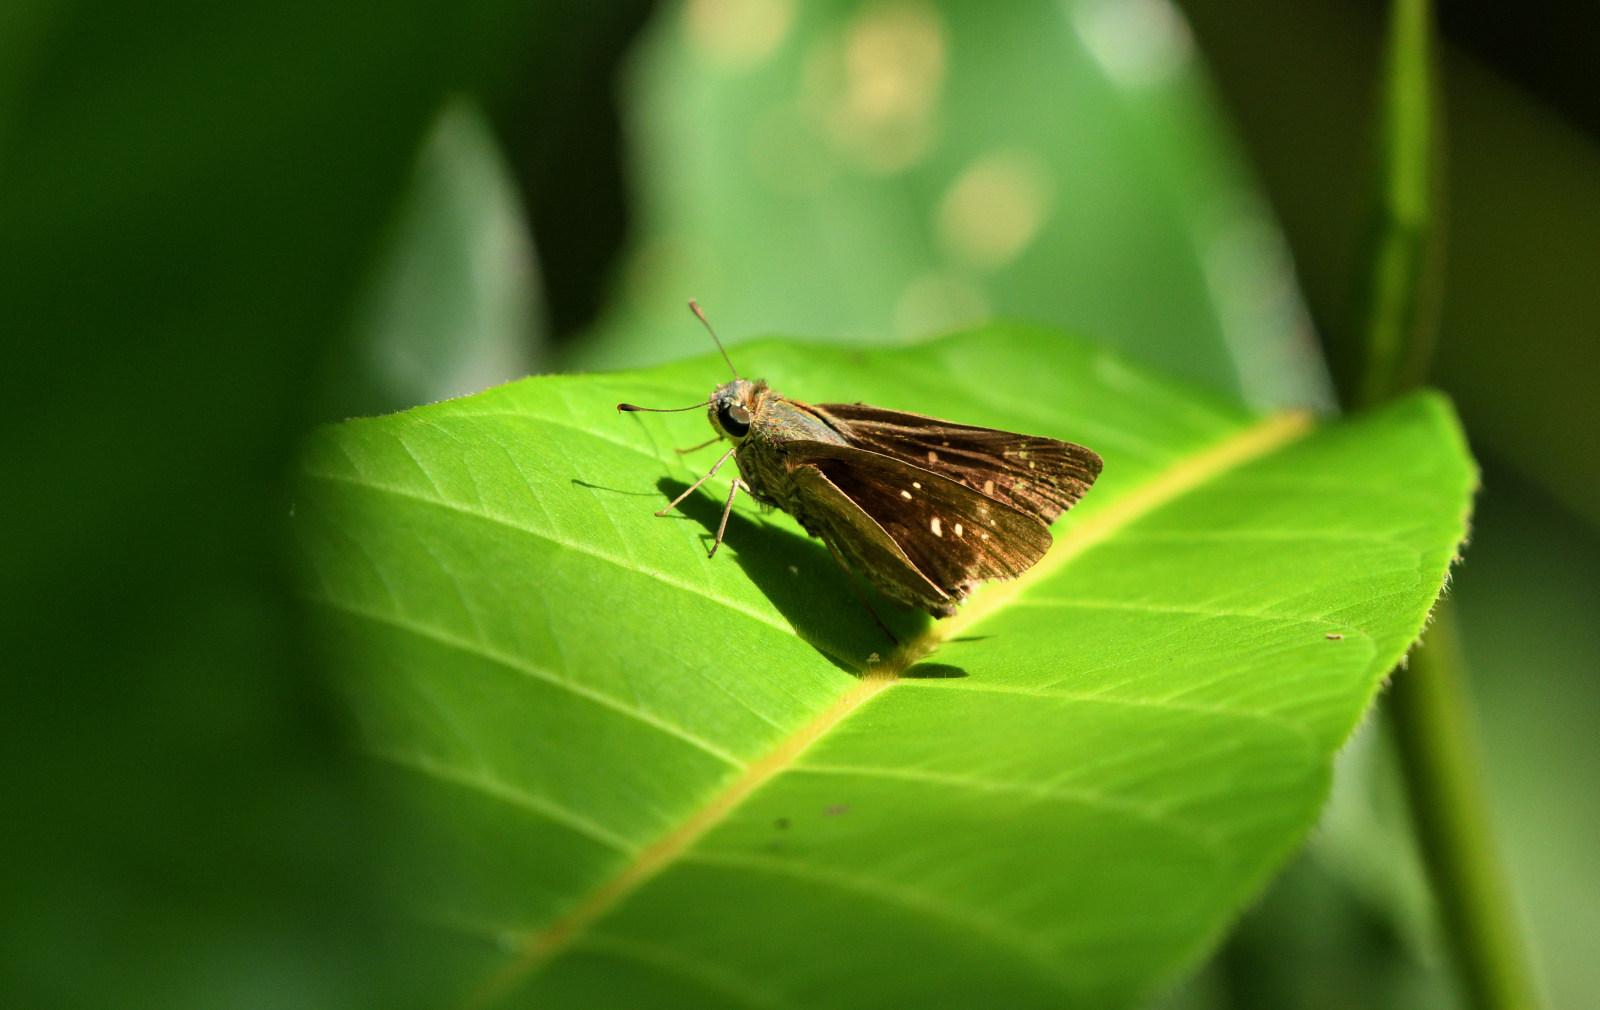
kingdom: Animalia
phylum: Arthropoda
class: Insecta
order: Lepidoptera
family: Hesperiidae
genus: Pelopidas
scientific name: Pelopidas agna
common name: Little branded swift
